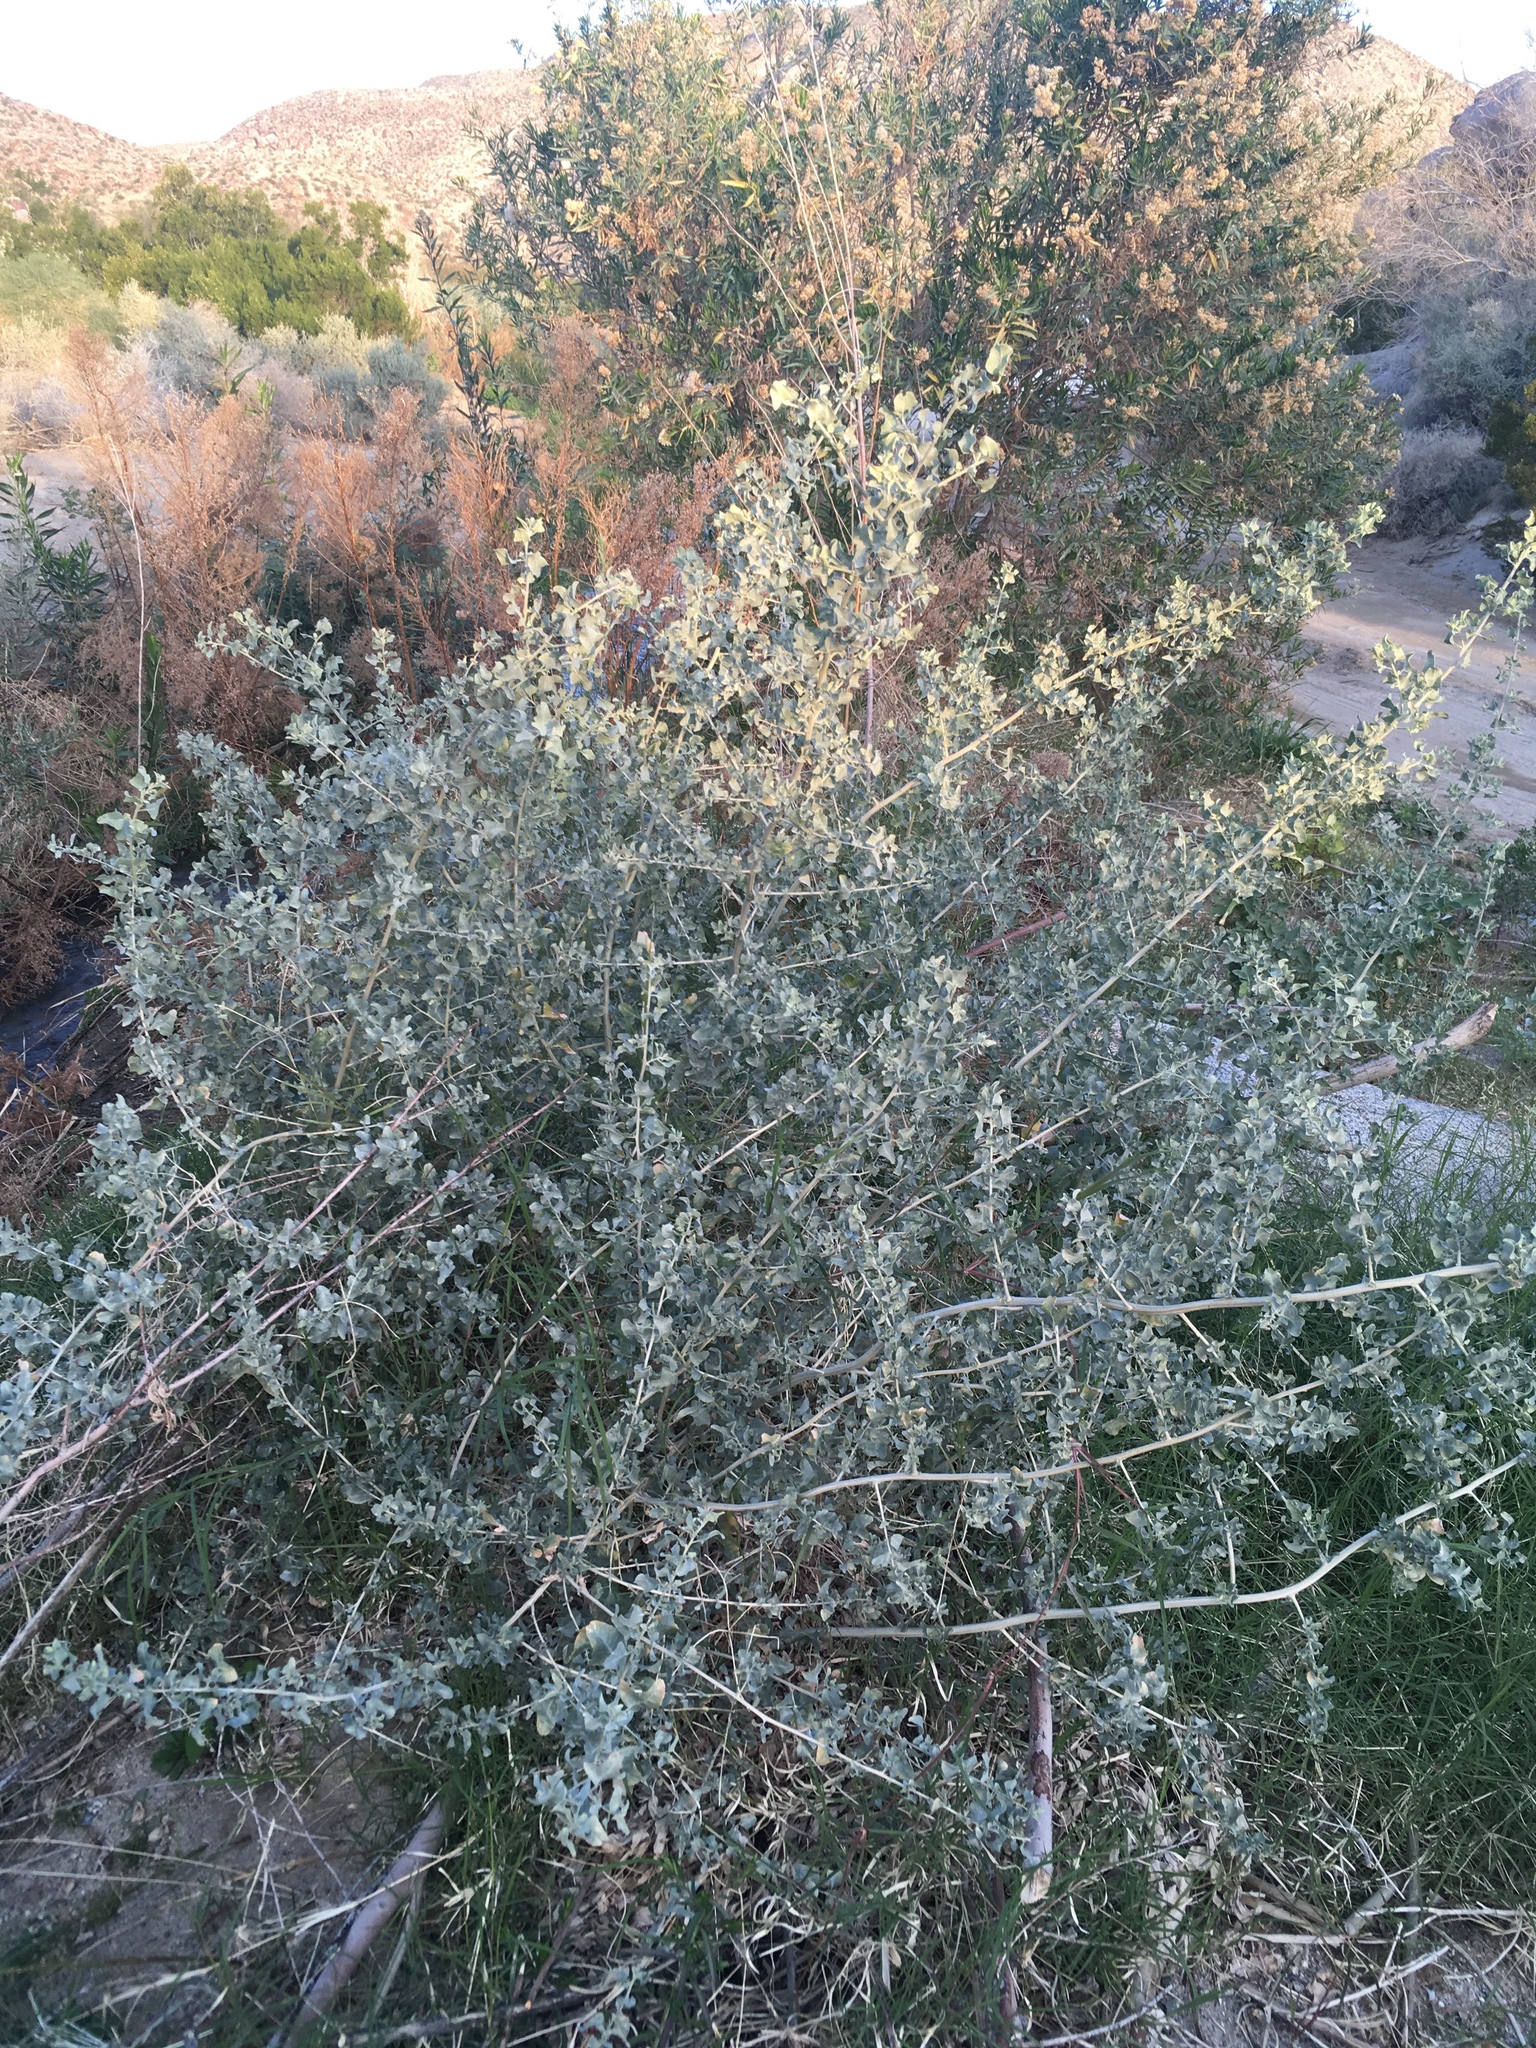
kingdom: Plantae
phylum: Tracheophyta
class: Magnoliopsida
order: Caryophyllales
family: Amaranthaceae
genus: Atriplex
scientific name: Atriplex lentiformis
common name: Big saltbush
